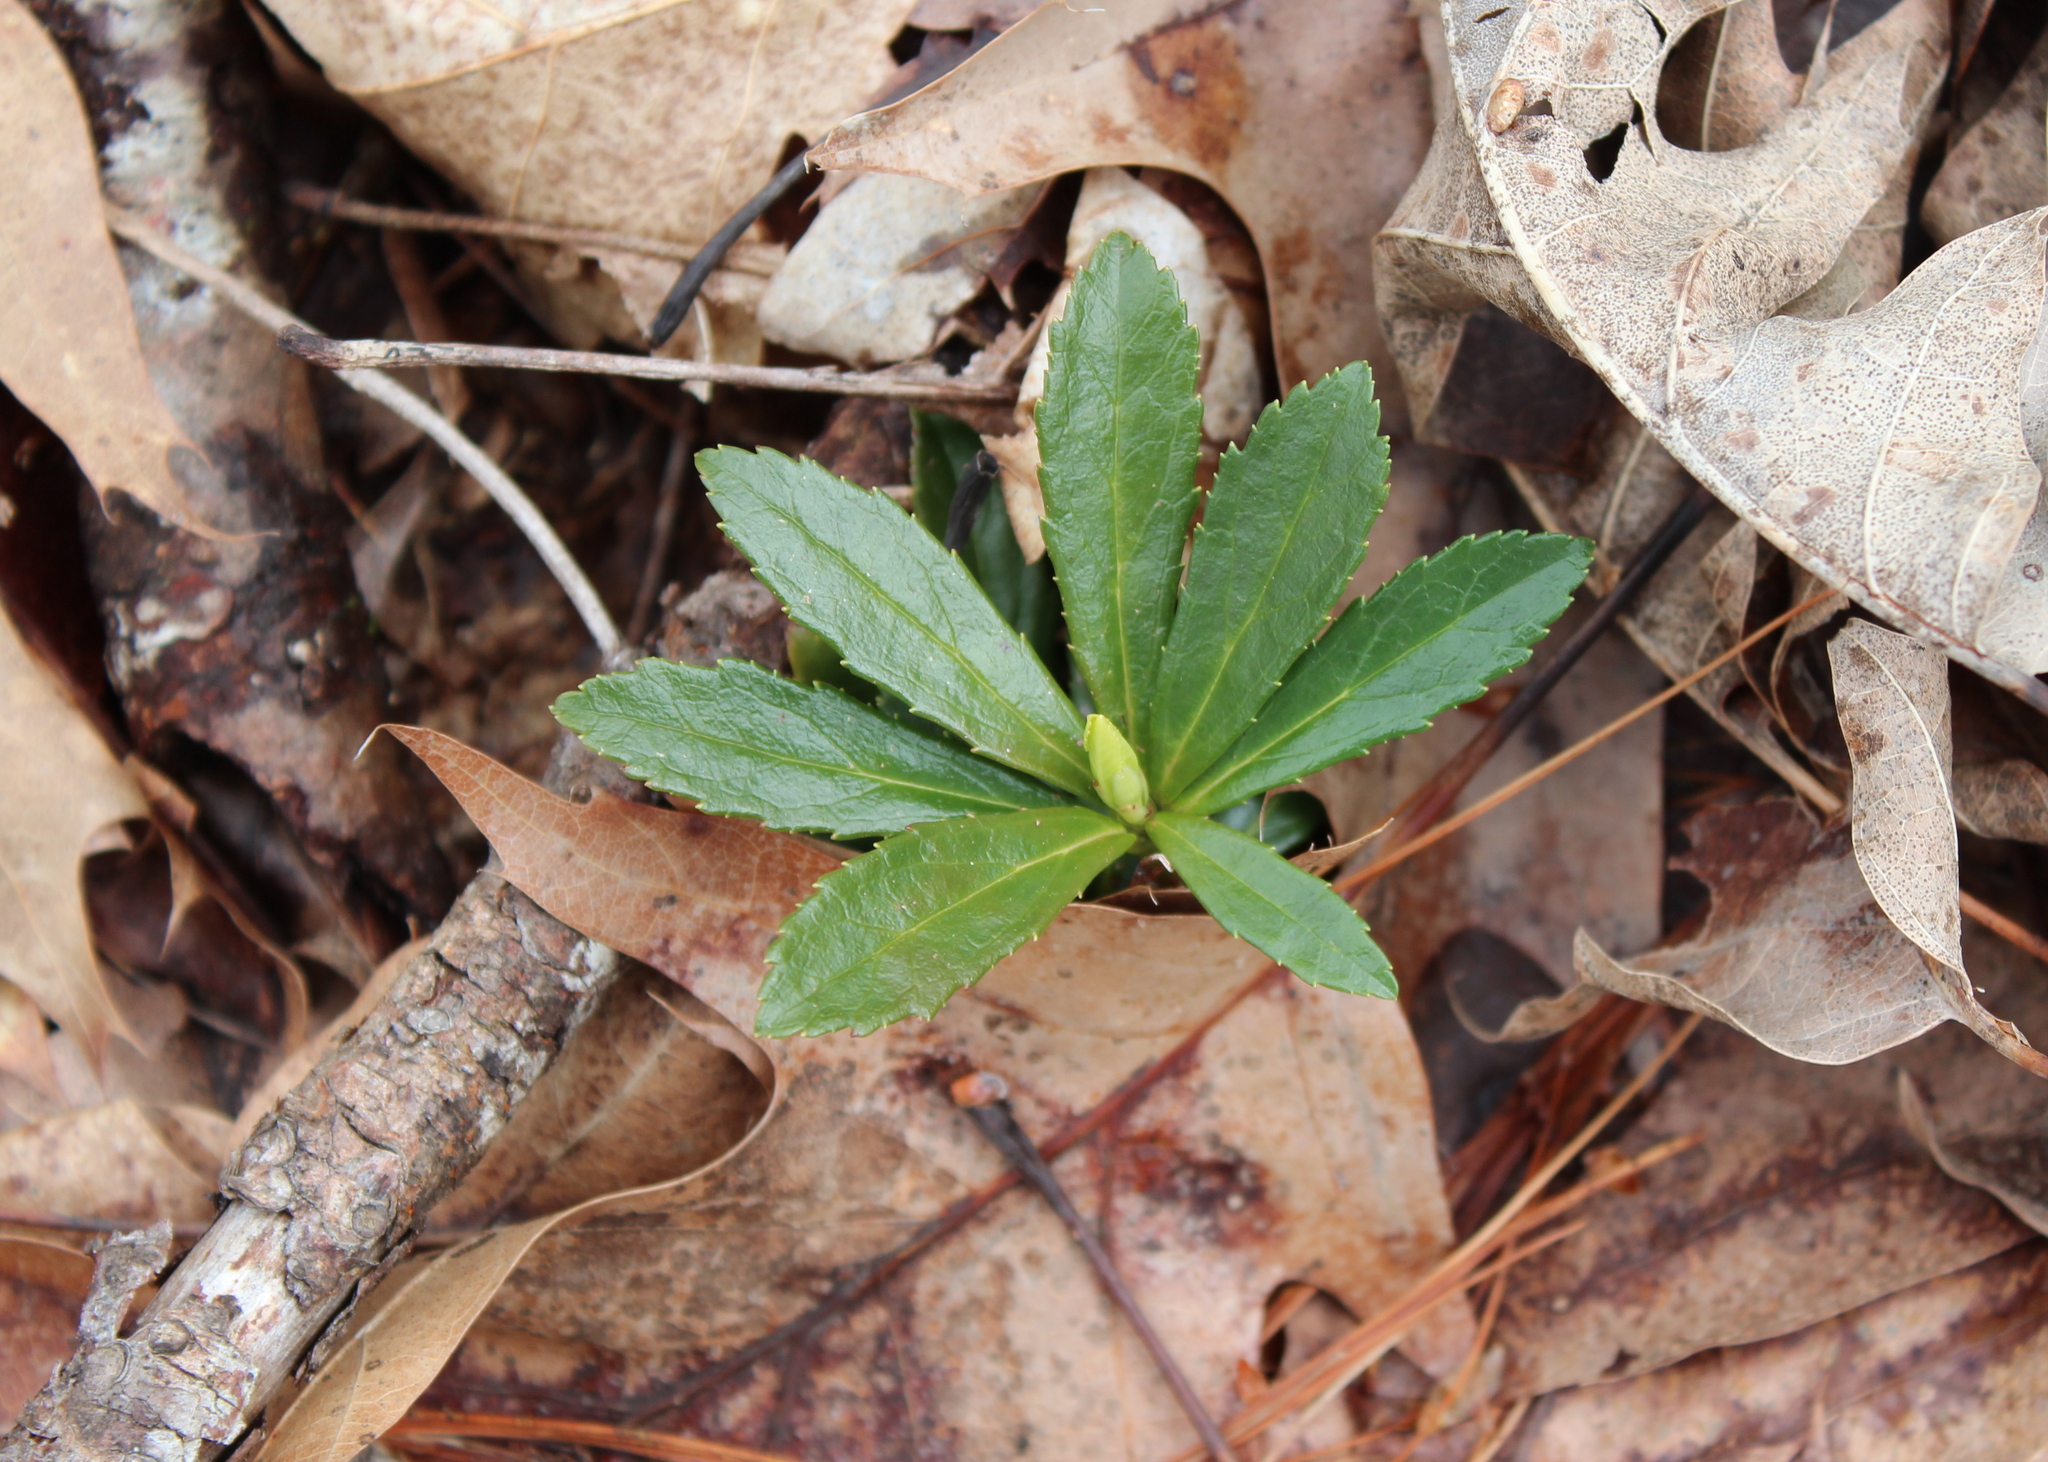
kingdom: Plantae
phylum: Tracheophyta
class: Magnoliopsida
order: Ericales
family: Ericaceae
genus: Chimaphila
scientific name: Chimaphila umbellata
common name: Pipsissewa
